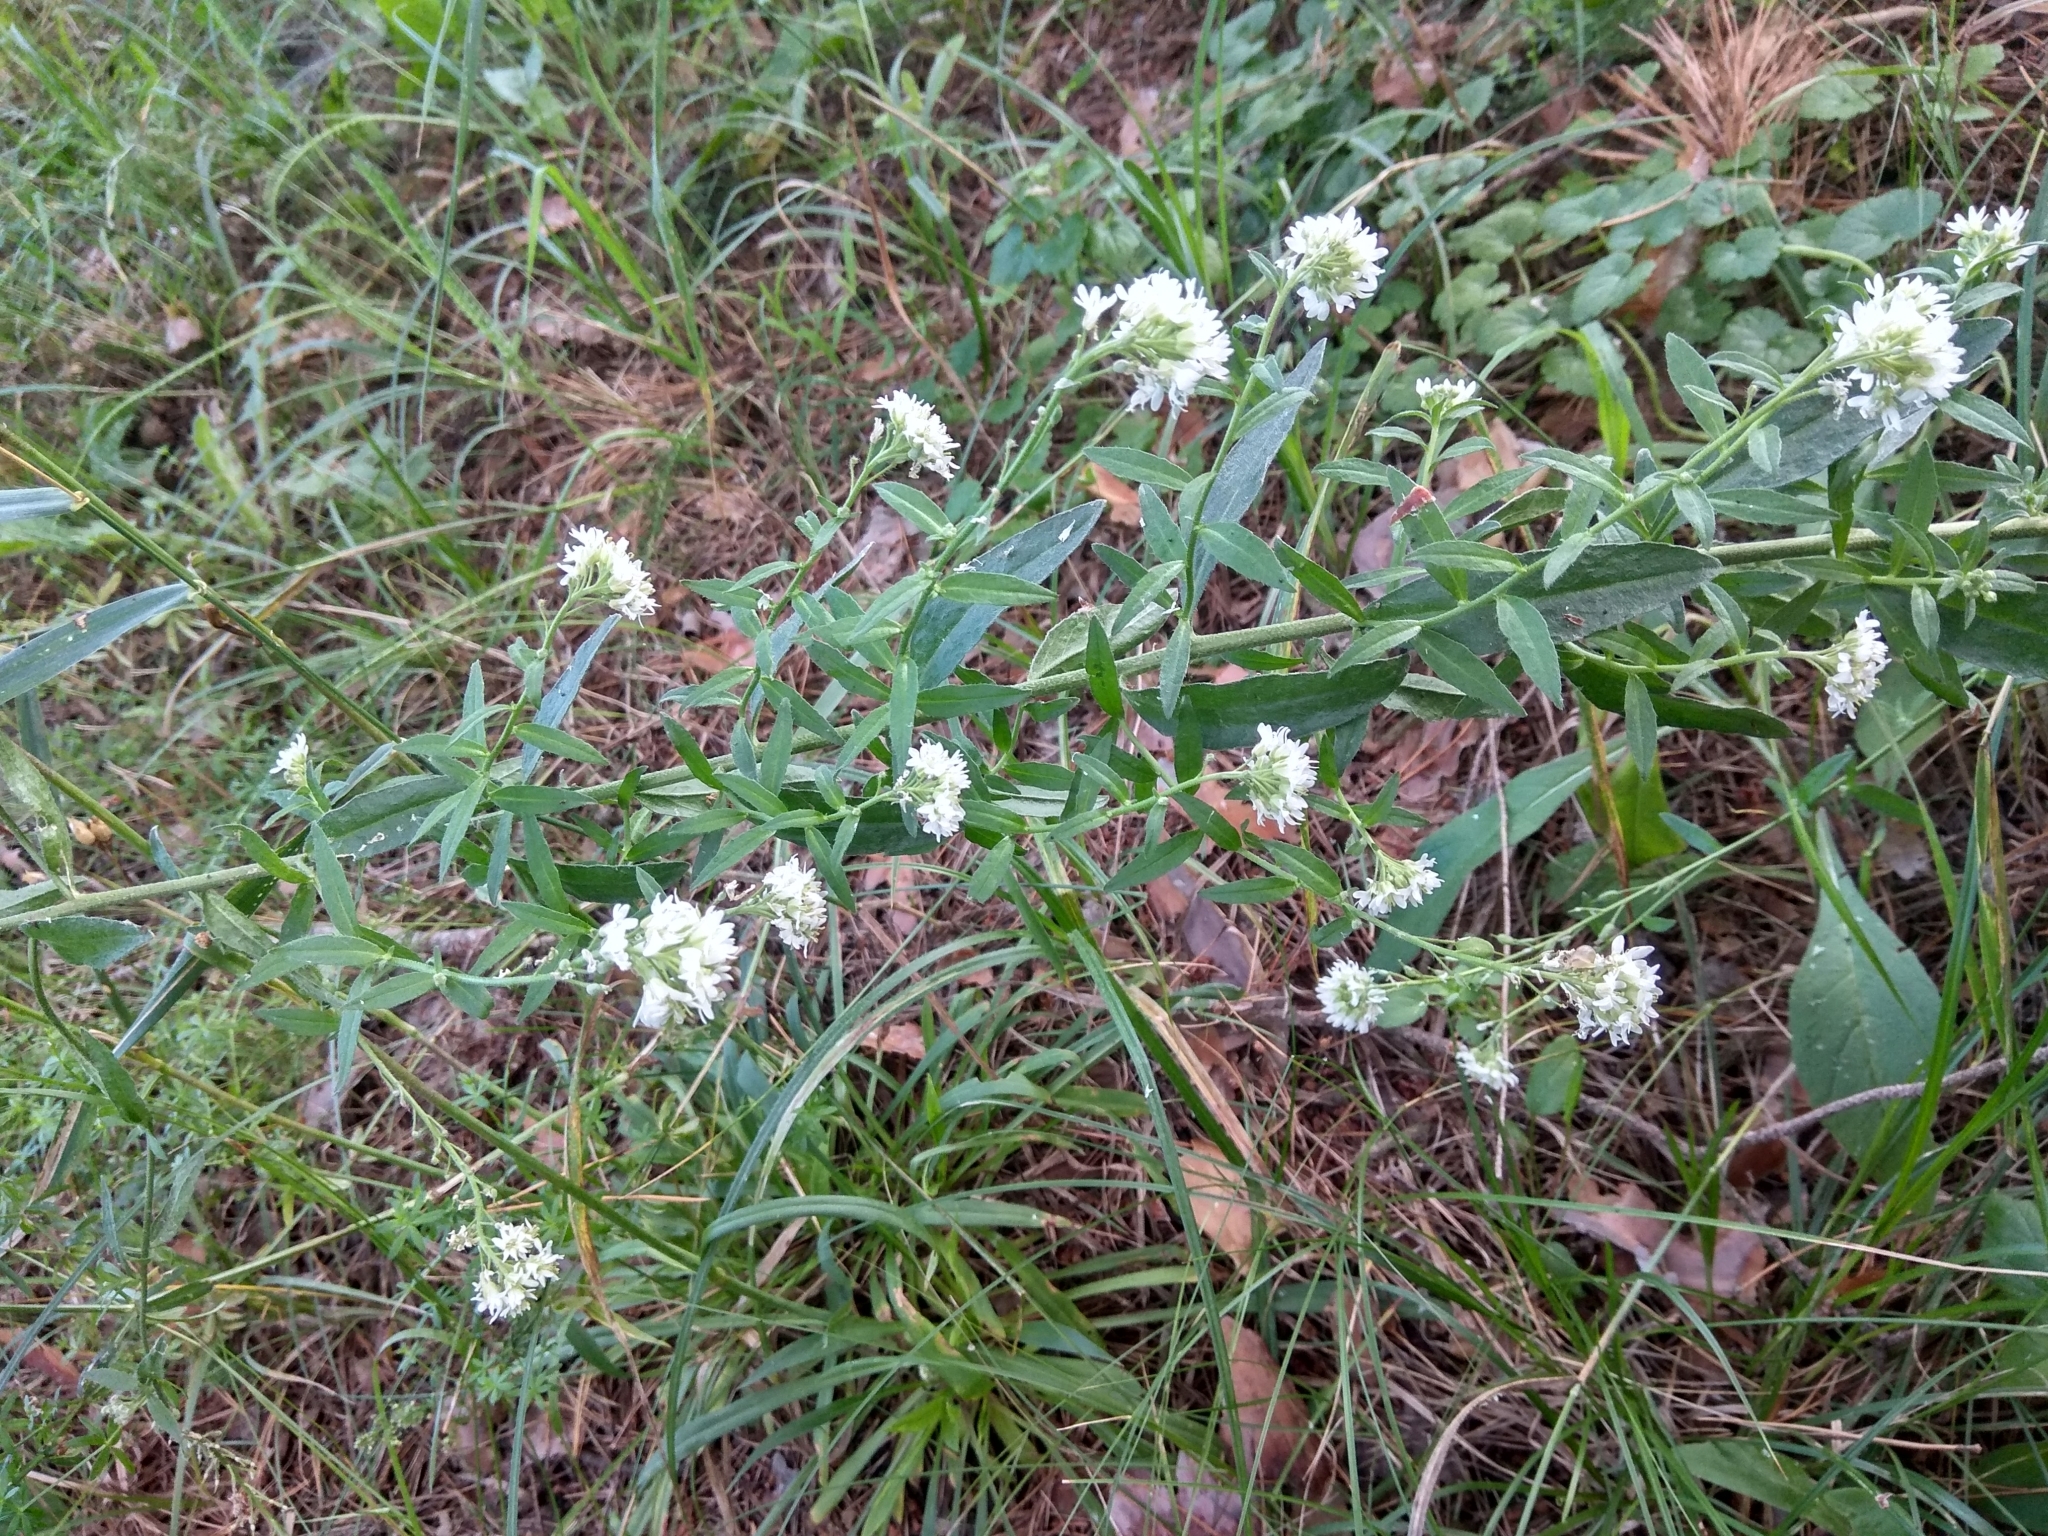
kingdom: Plantae
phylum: Tracheophyta
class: Magnoliopsida
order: Brassicales
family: Brassicaceae
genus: Berteroa
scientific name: Berteroa incana
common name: Hoary alison
